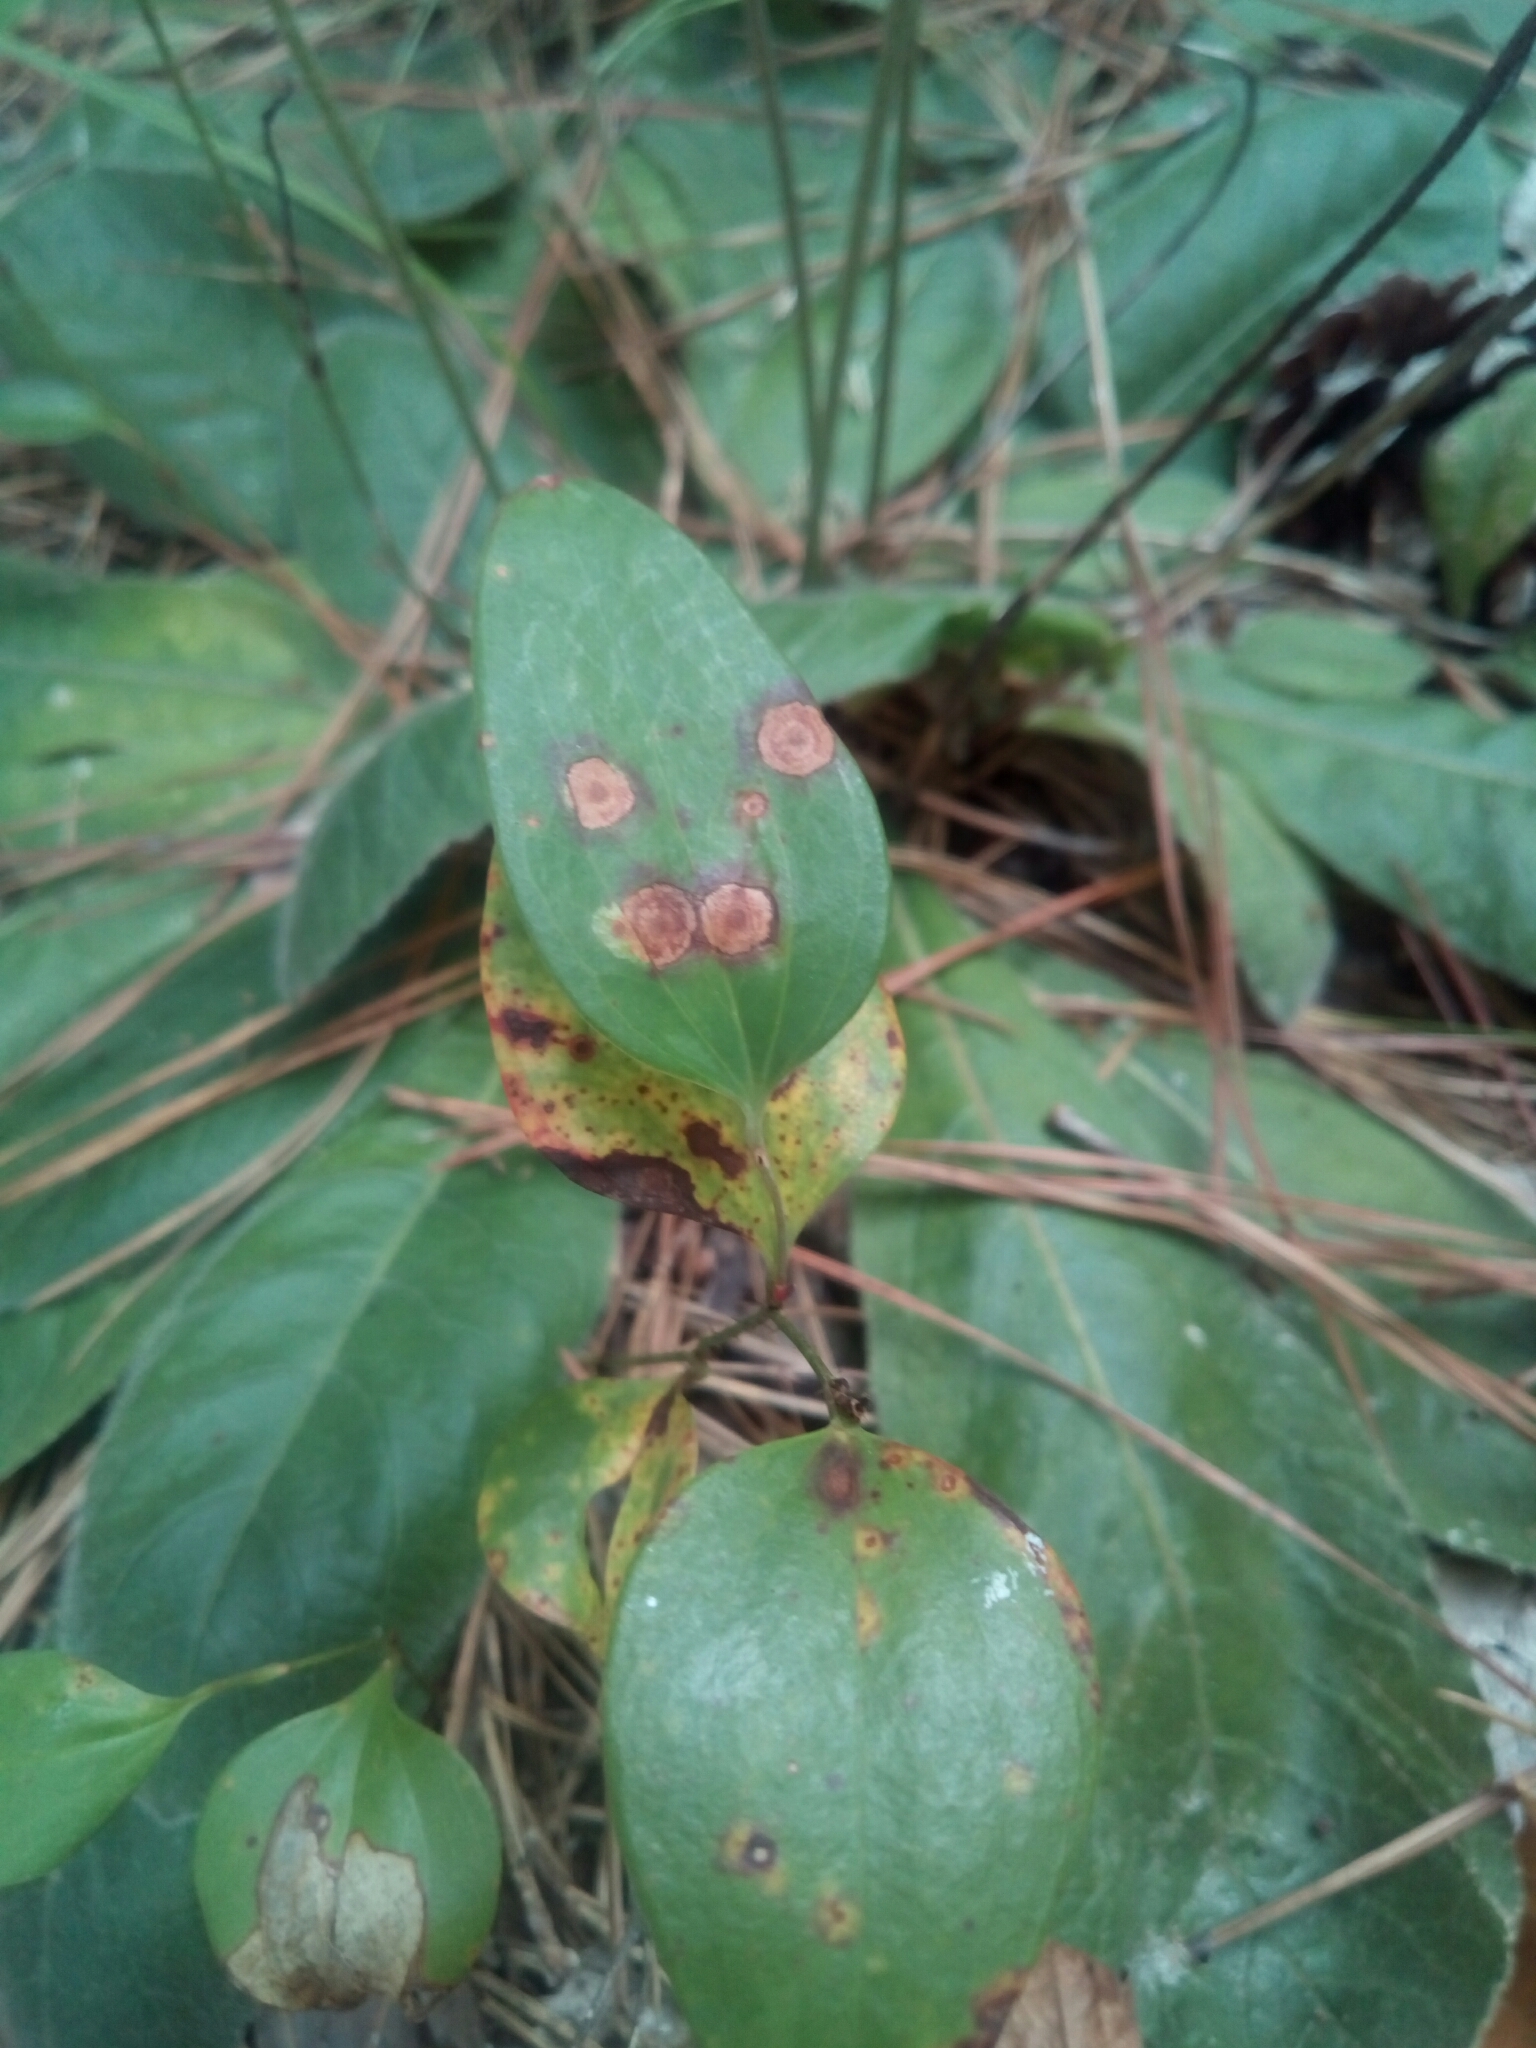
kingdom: Plantae
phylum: Tracheophyta
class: Liliopsida
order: Liliales
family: Smilacaceae
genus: Smilax
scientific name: Smilax glauca
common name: Cat greenbrier
